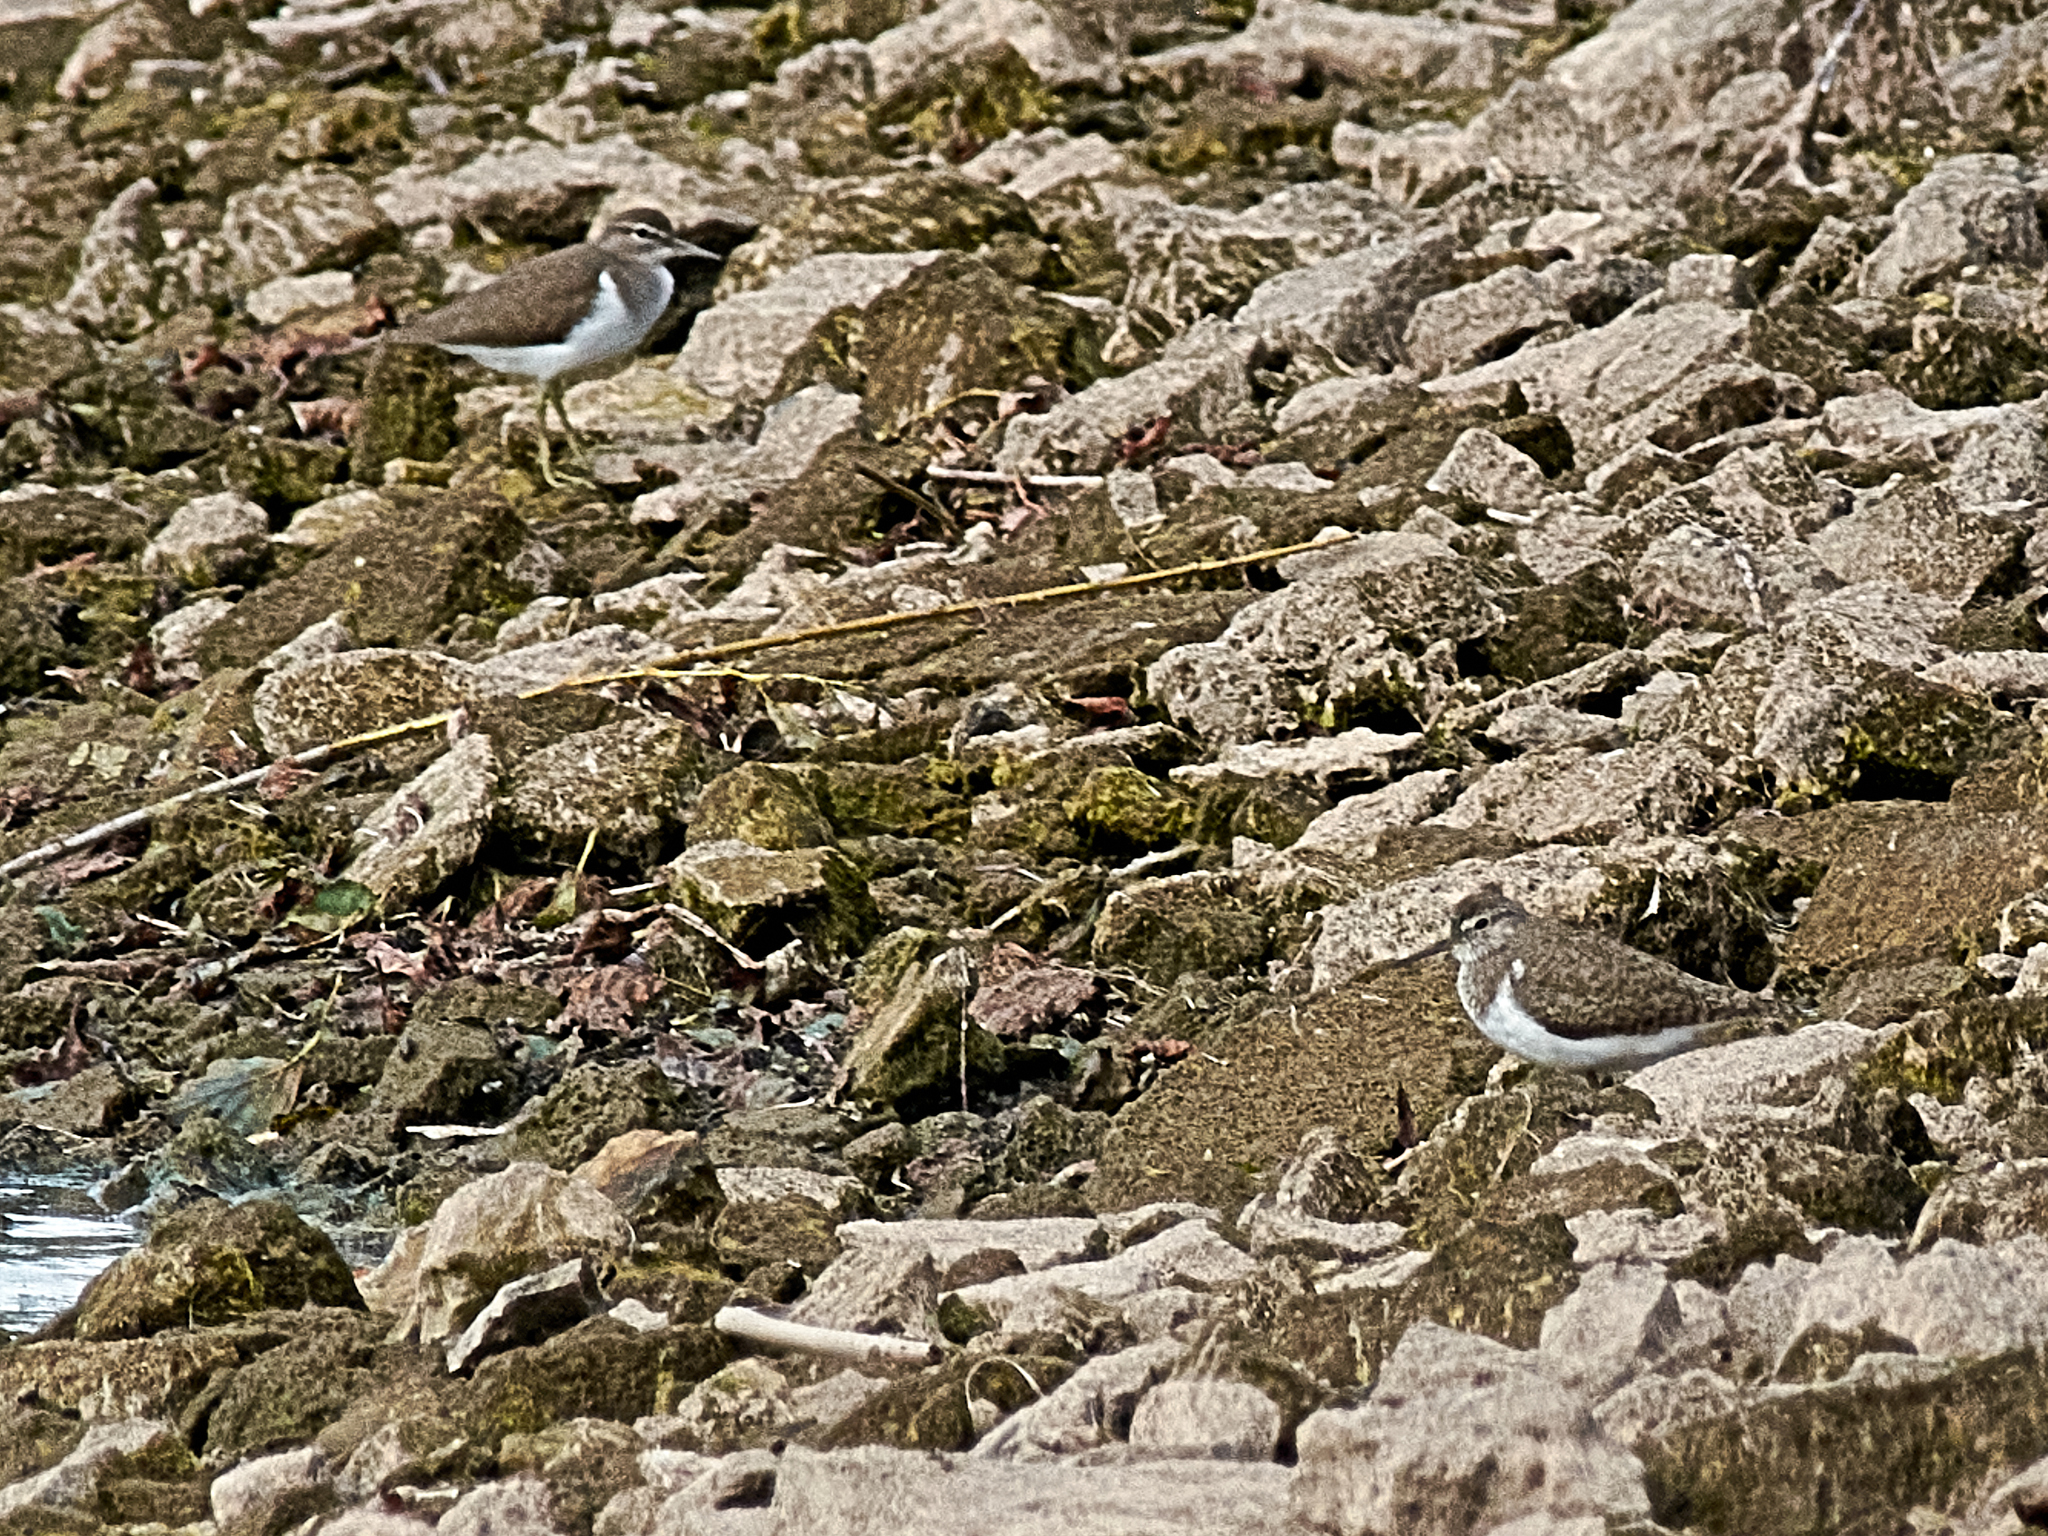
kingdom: Animalia
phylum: Chordata
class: Aves
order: Charadriiformes
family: Scolopacidae
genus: Actitis
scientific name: Actitis hypoleucos
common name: Common sandpiper
